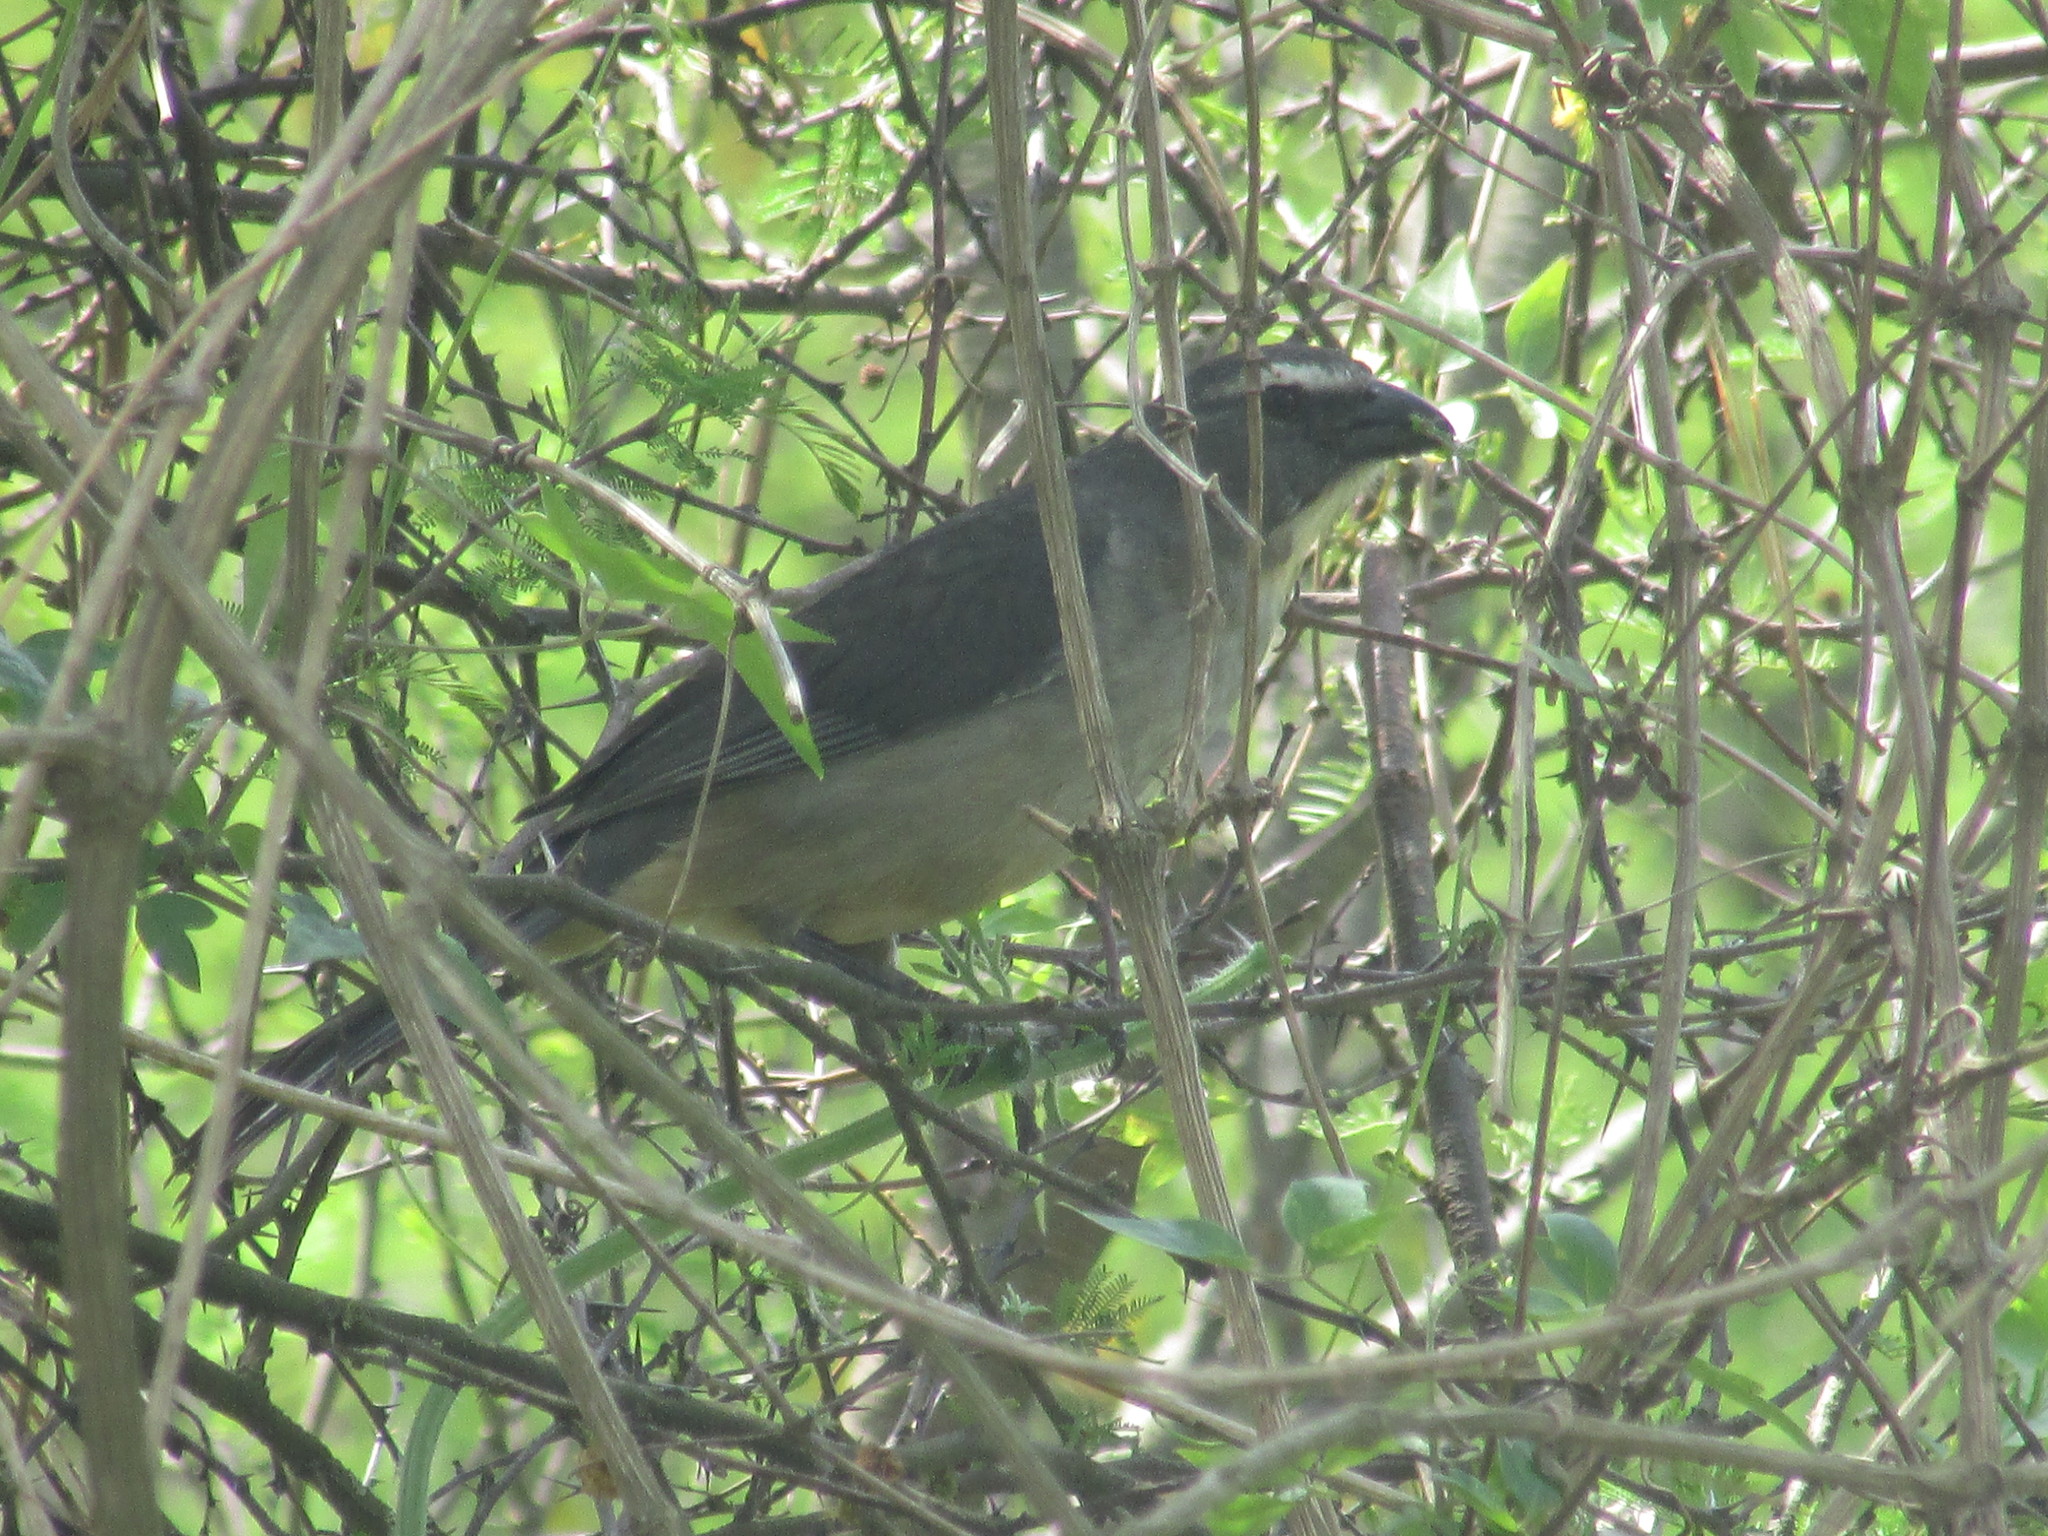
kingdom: Animalia
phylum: Chordata
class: Aves
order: Passeriformes
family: Thraupidae
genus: Saltator
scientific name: Saltator coerulescens
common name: Grayish saltator
